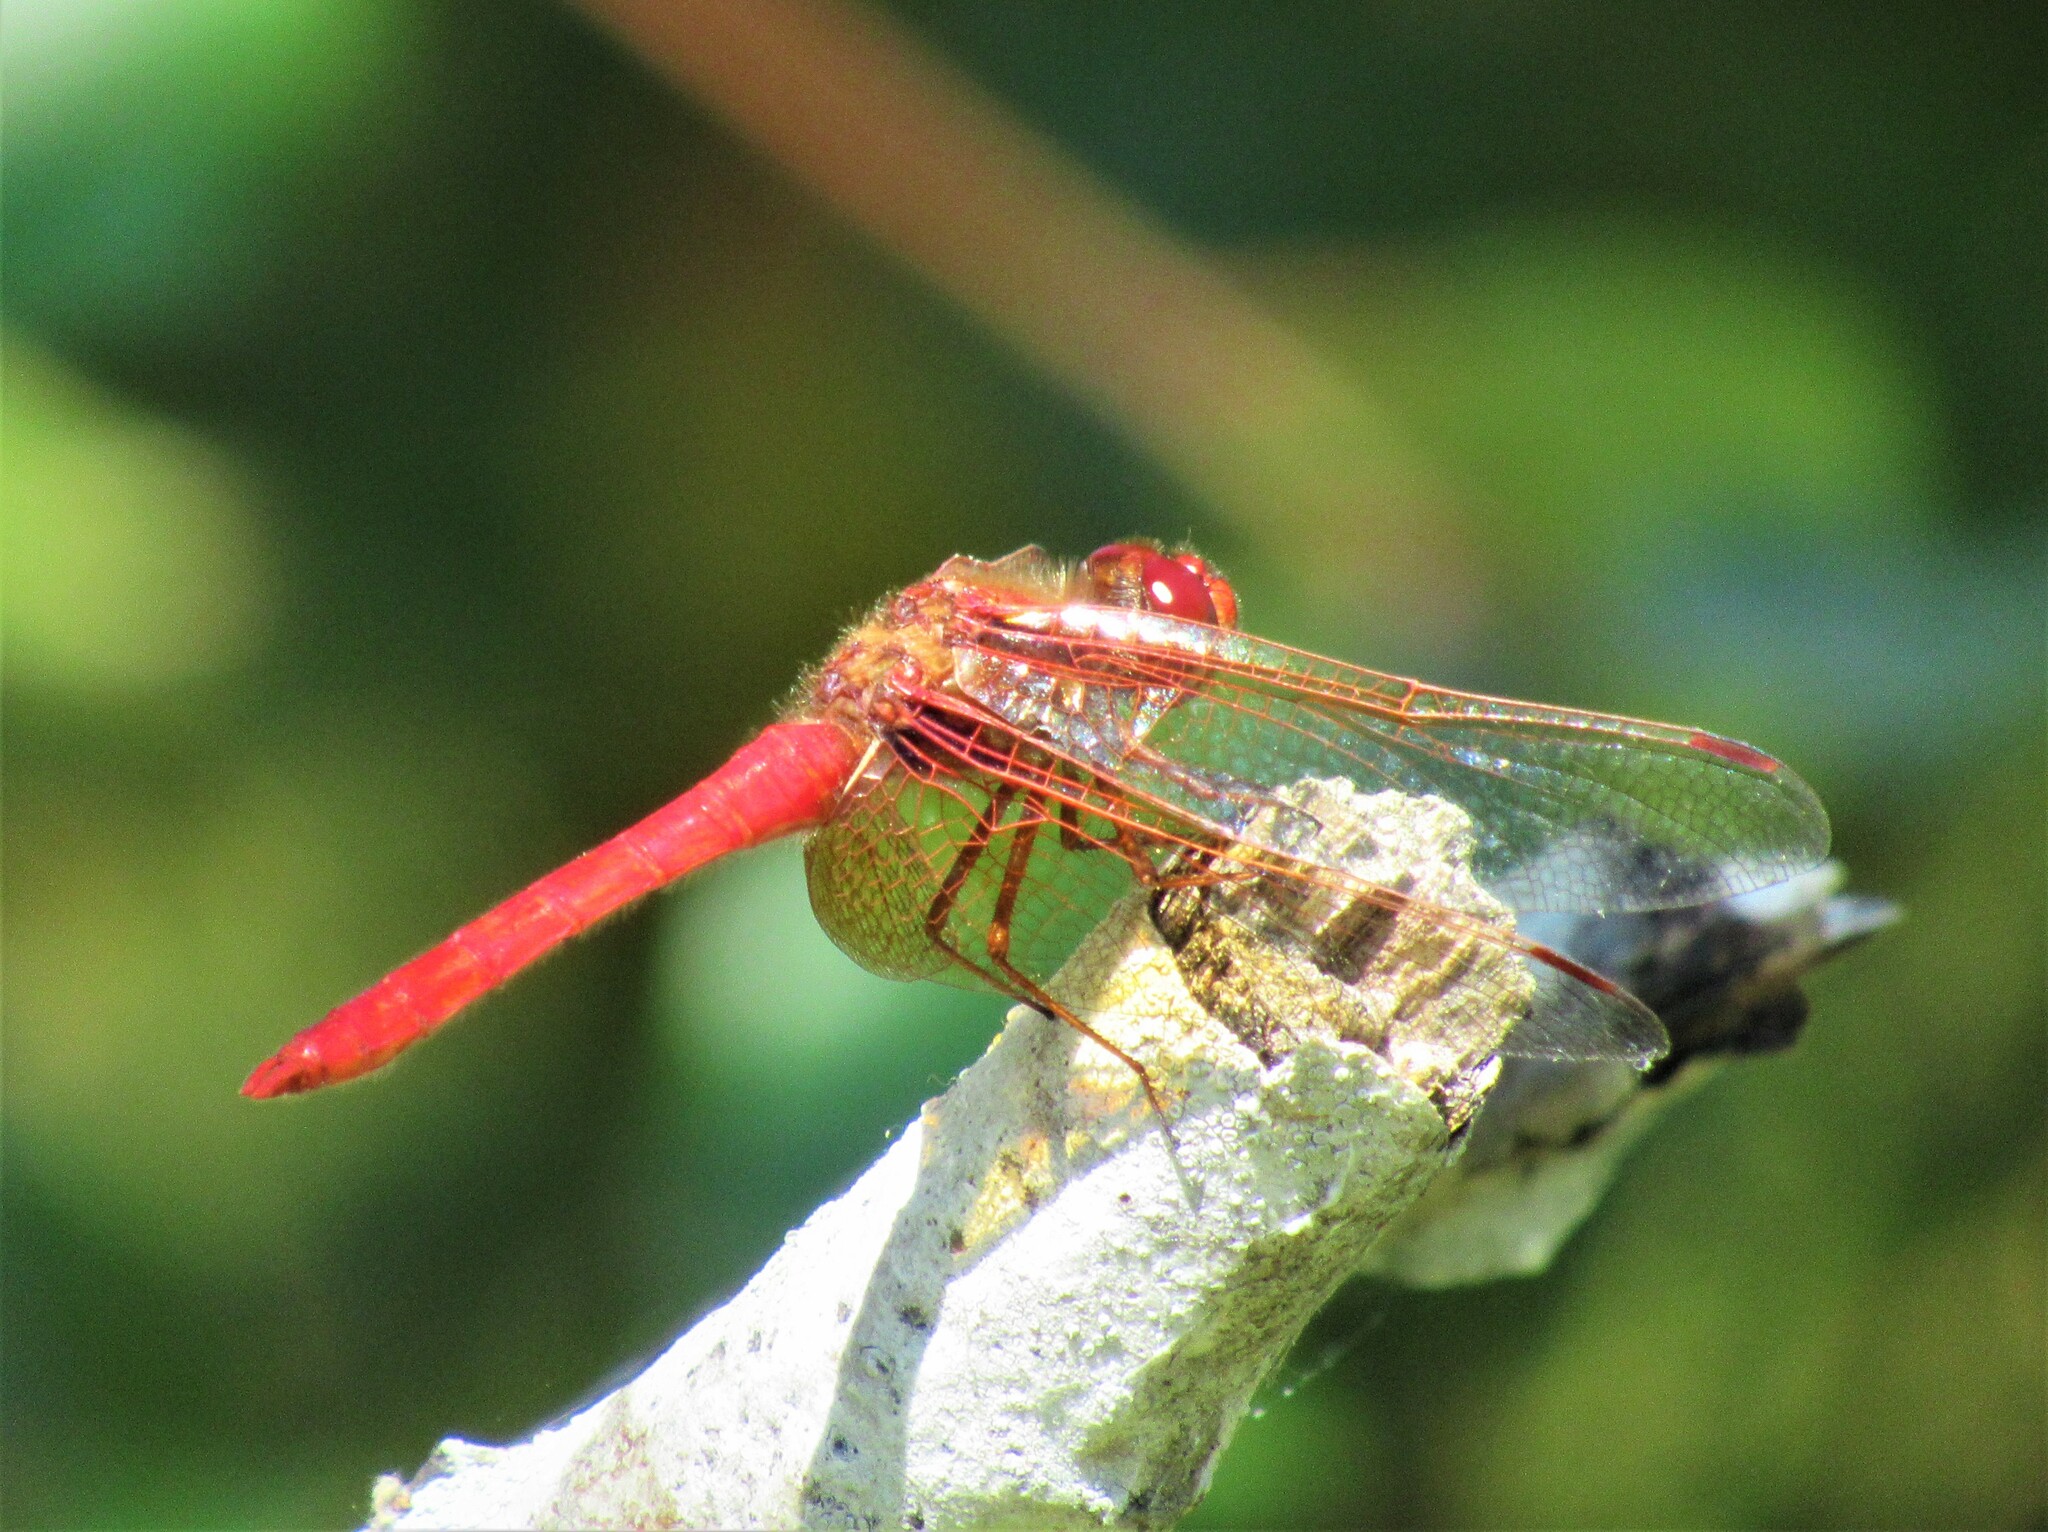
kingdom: Animalia
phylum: Arthropoda
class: Insecta
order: Odonata
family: Libellulidae
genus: Sympetrum
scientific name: Sympetrum illotum
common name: Cardinal meadowhawk
